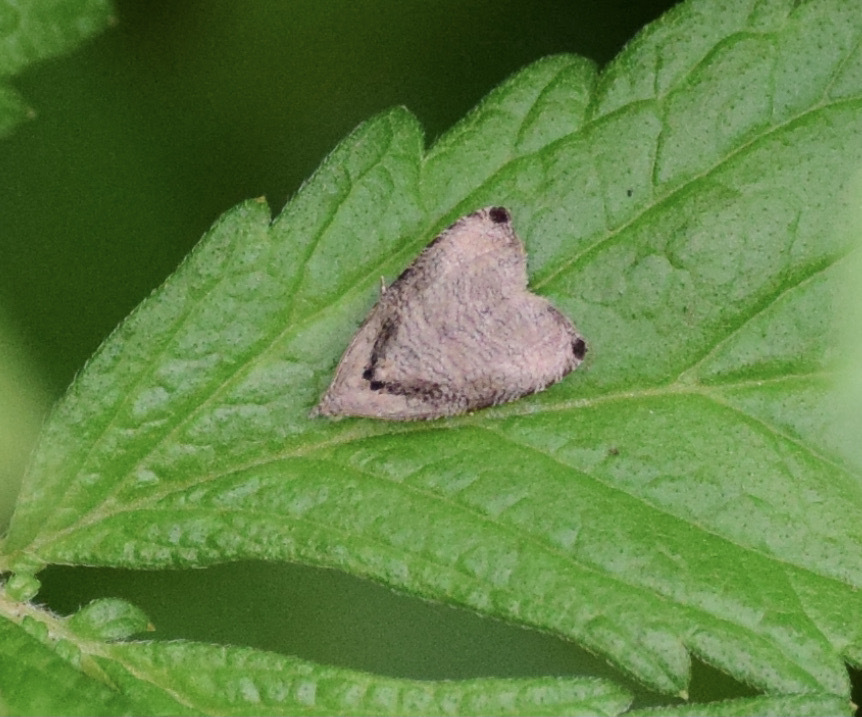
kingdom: Animalia
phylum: Arthropoda
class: Insecta
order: Lepidoptera
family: Tortricidae
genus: Olethreutes
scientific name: Olethreutes exoletum
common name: Wretched olethreutes moth
